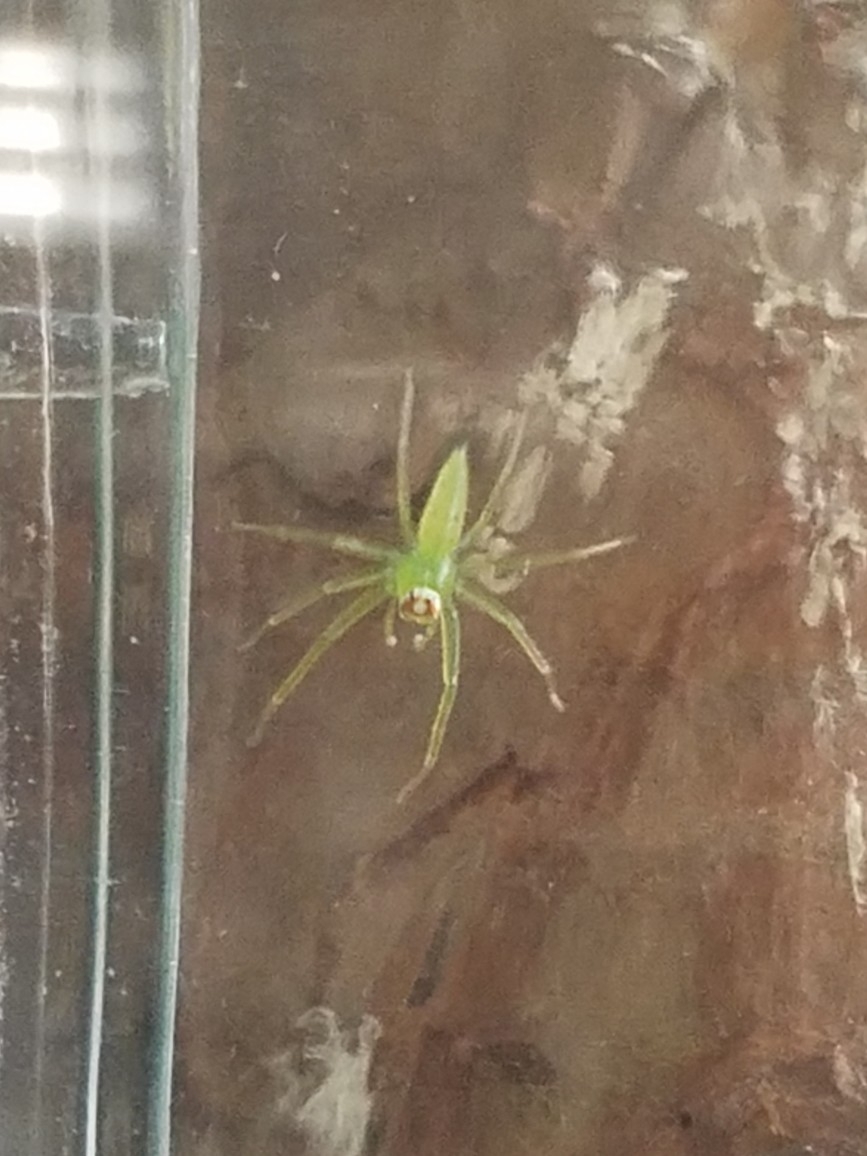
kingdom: Animalia
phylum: Arthropoda
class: Arachnida
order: Araneae
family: Salticidae
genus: Lyssomanes
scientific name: Lyssomanes viridis
